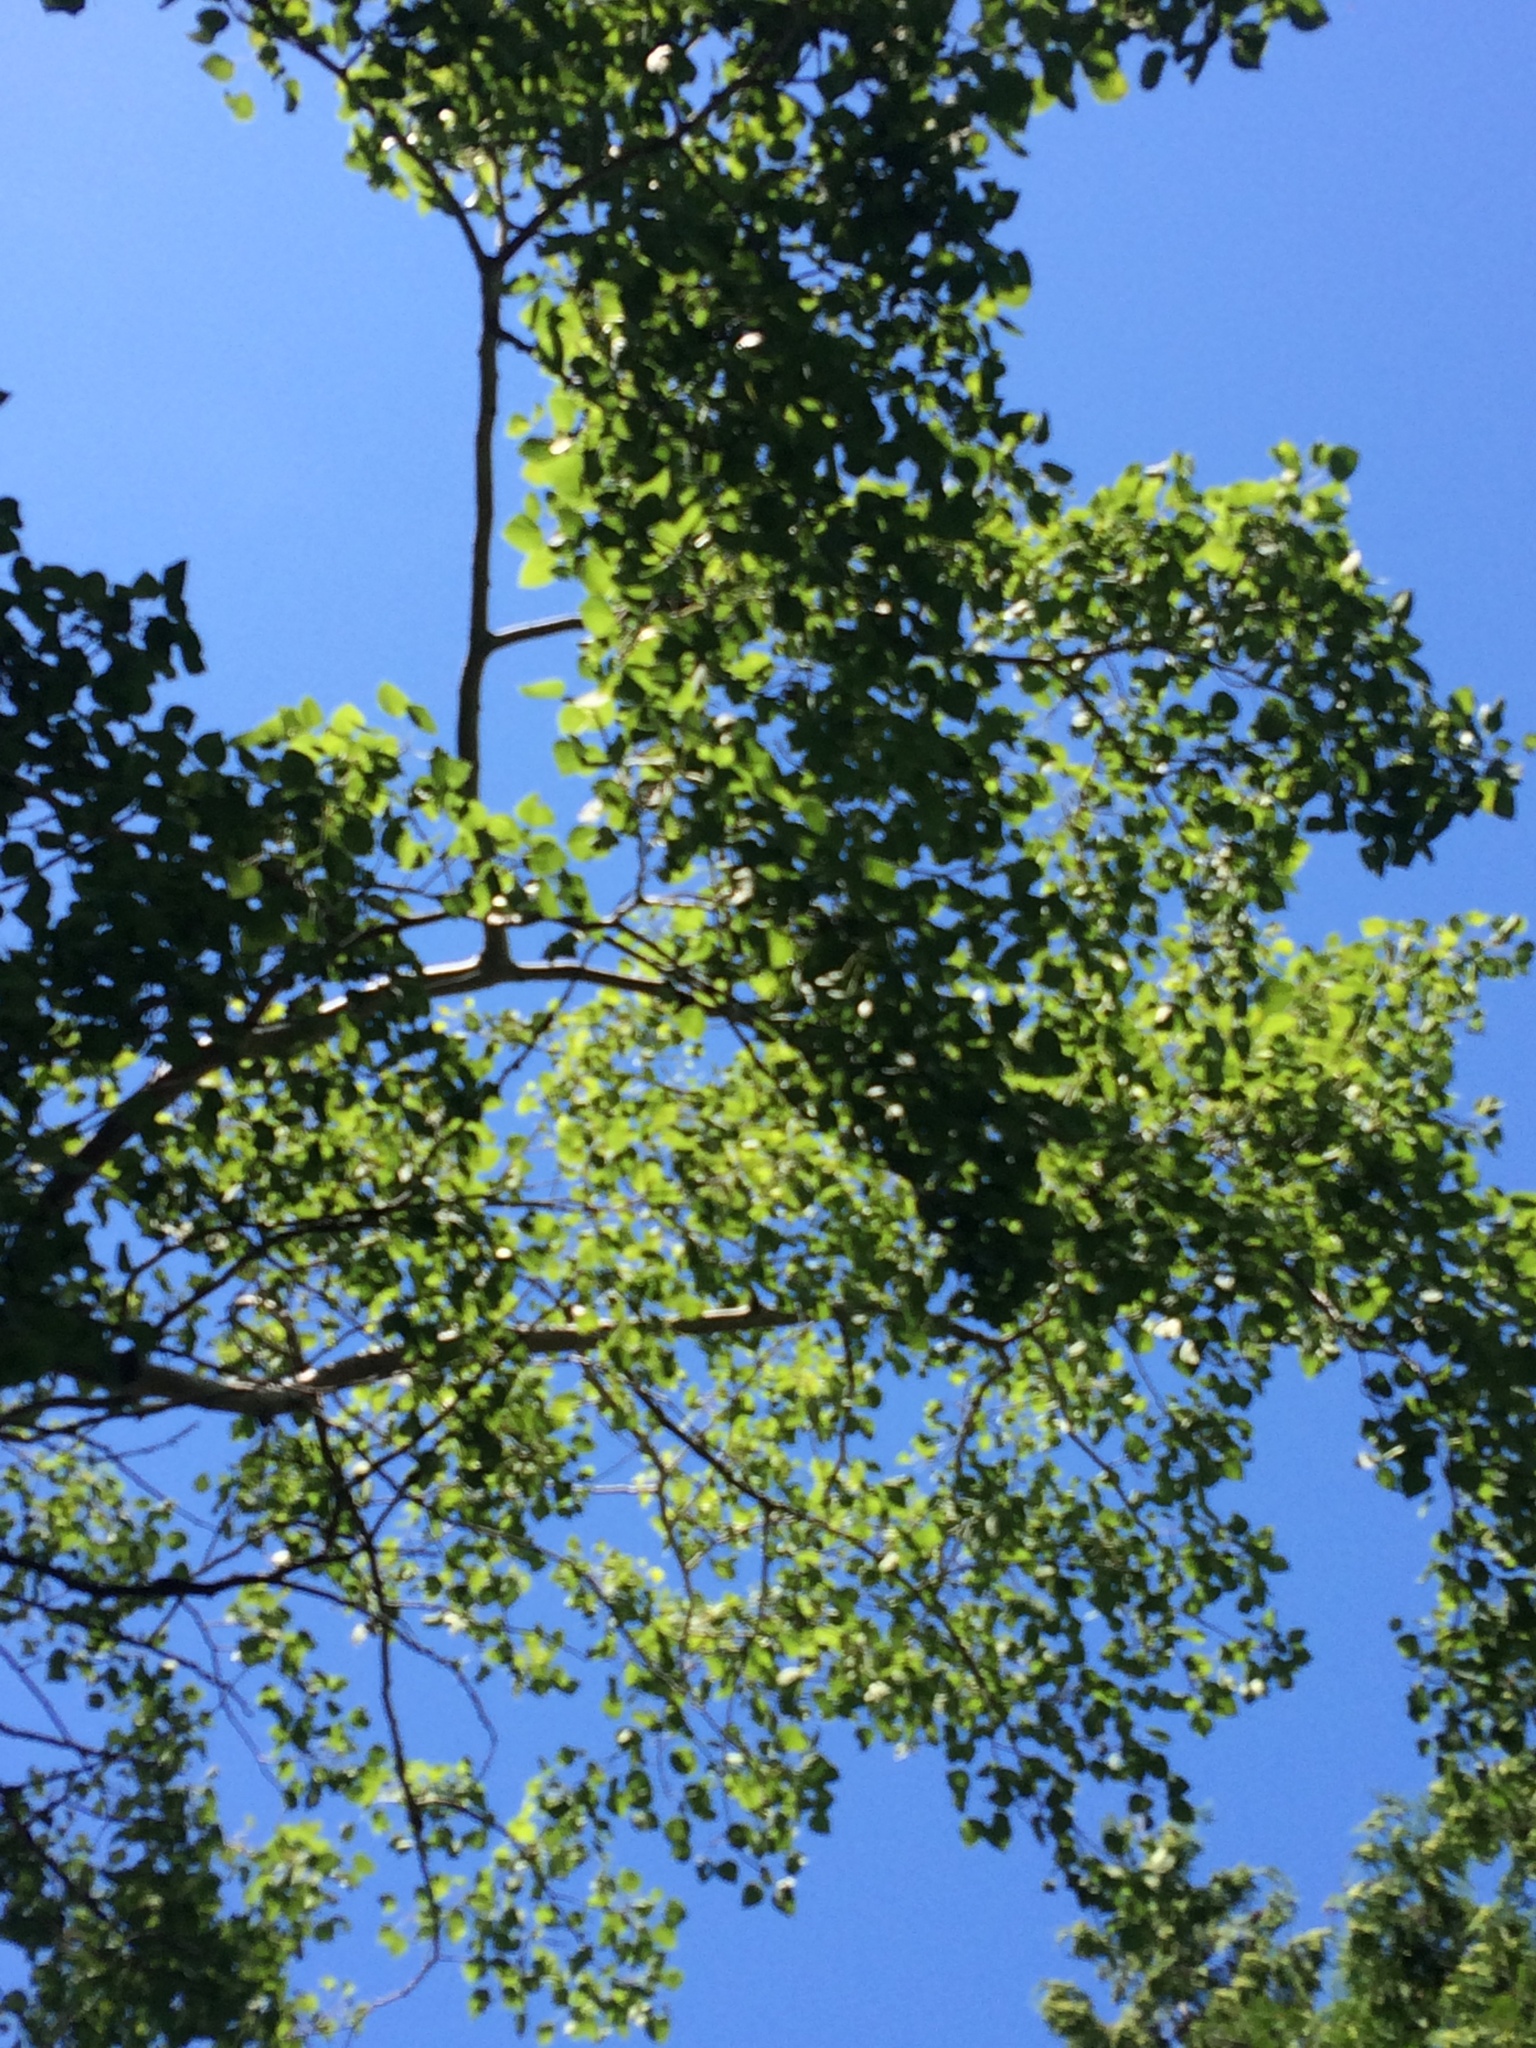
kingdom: Plantae
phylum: Tracheophyta
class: Magnoliopsida
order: Malpighiales
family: Salicaceae
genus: Populus
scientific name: Populus tremuloides
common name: Quaking aspen
